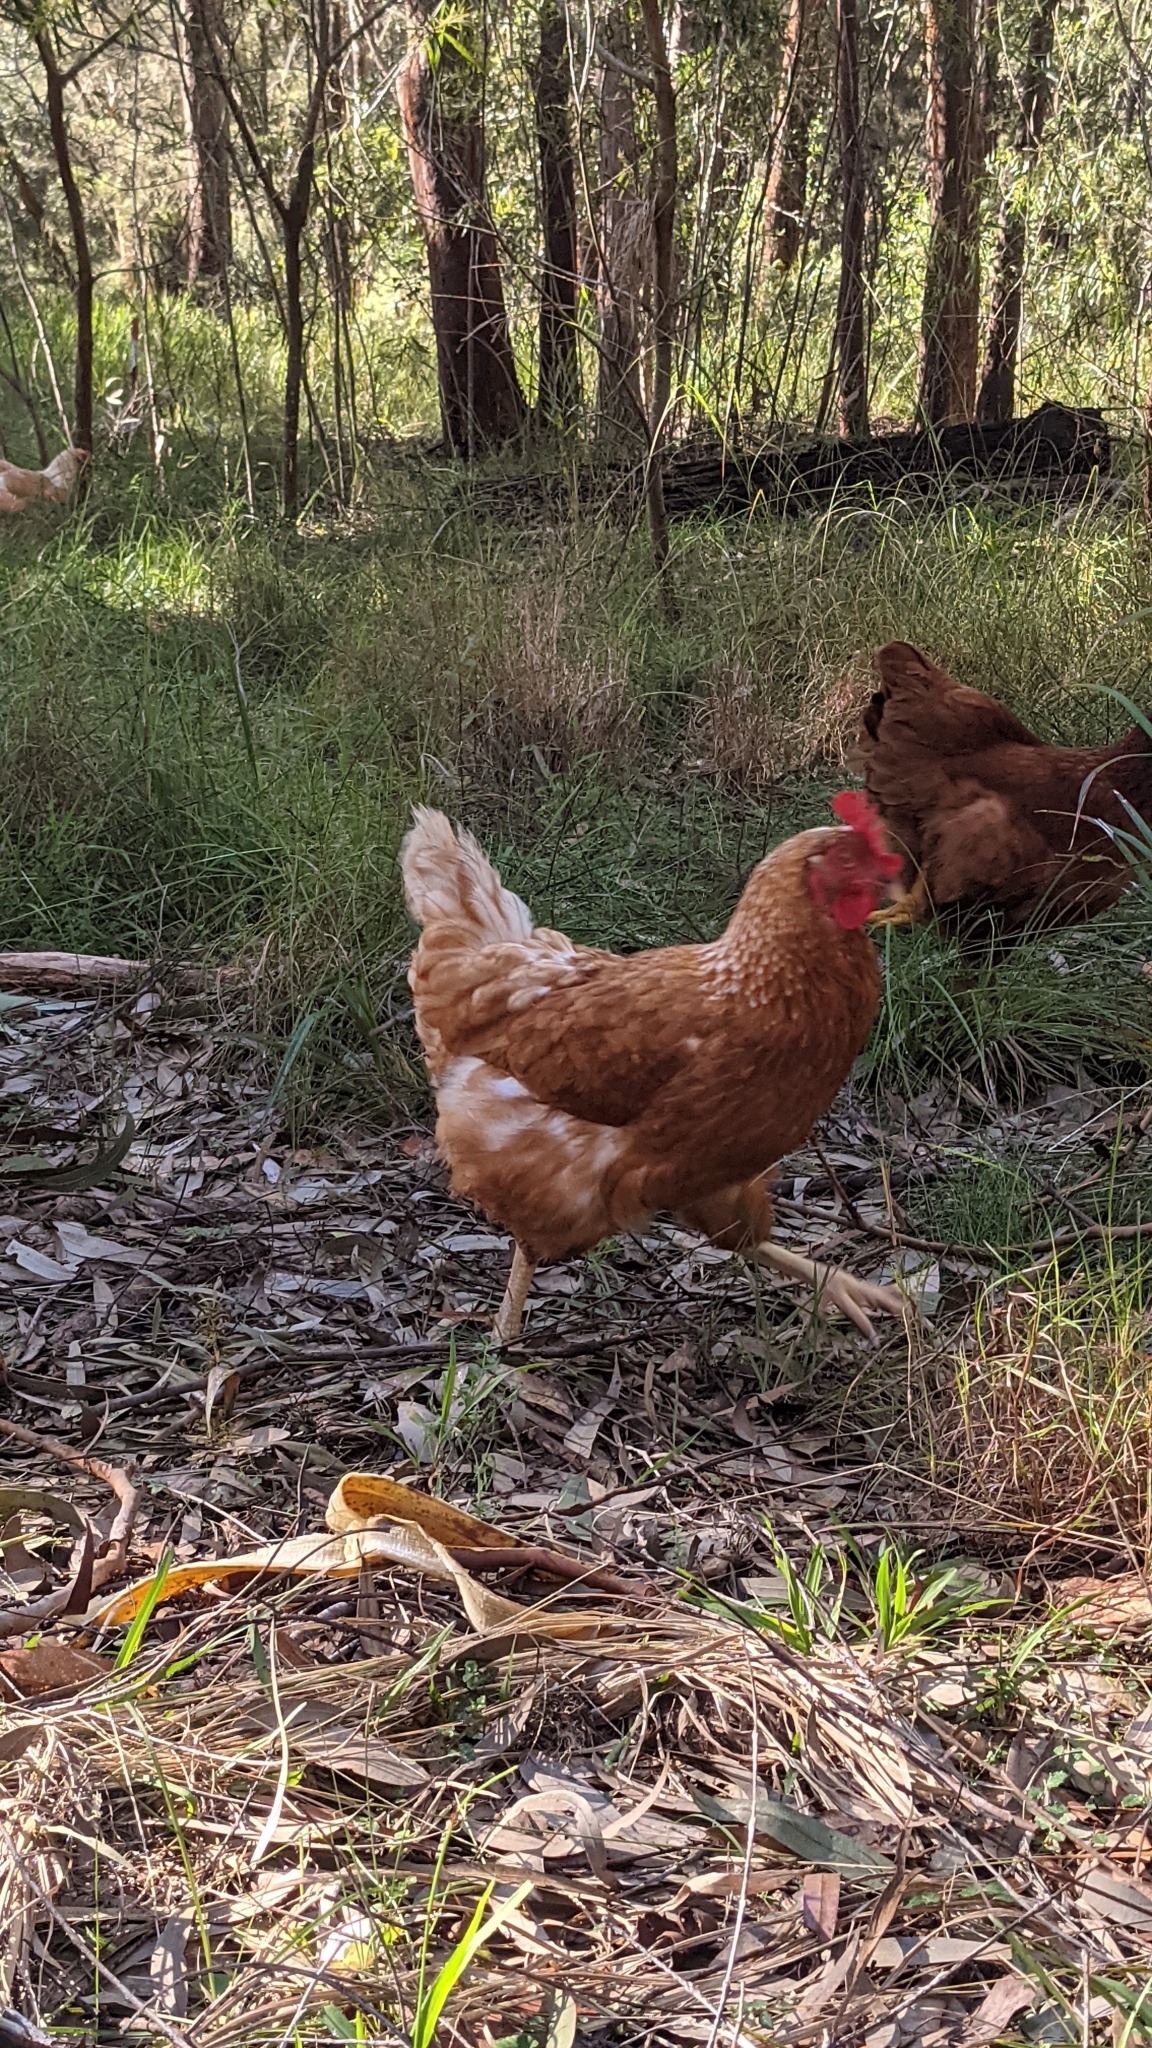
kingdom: Animalia
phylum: Chordata
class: Aves
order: Galliformes
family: Phasianidae
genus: Gallus
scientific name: Gallus gallus
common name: Red junglefowl
